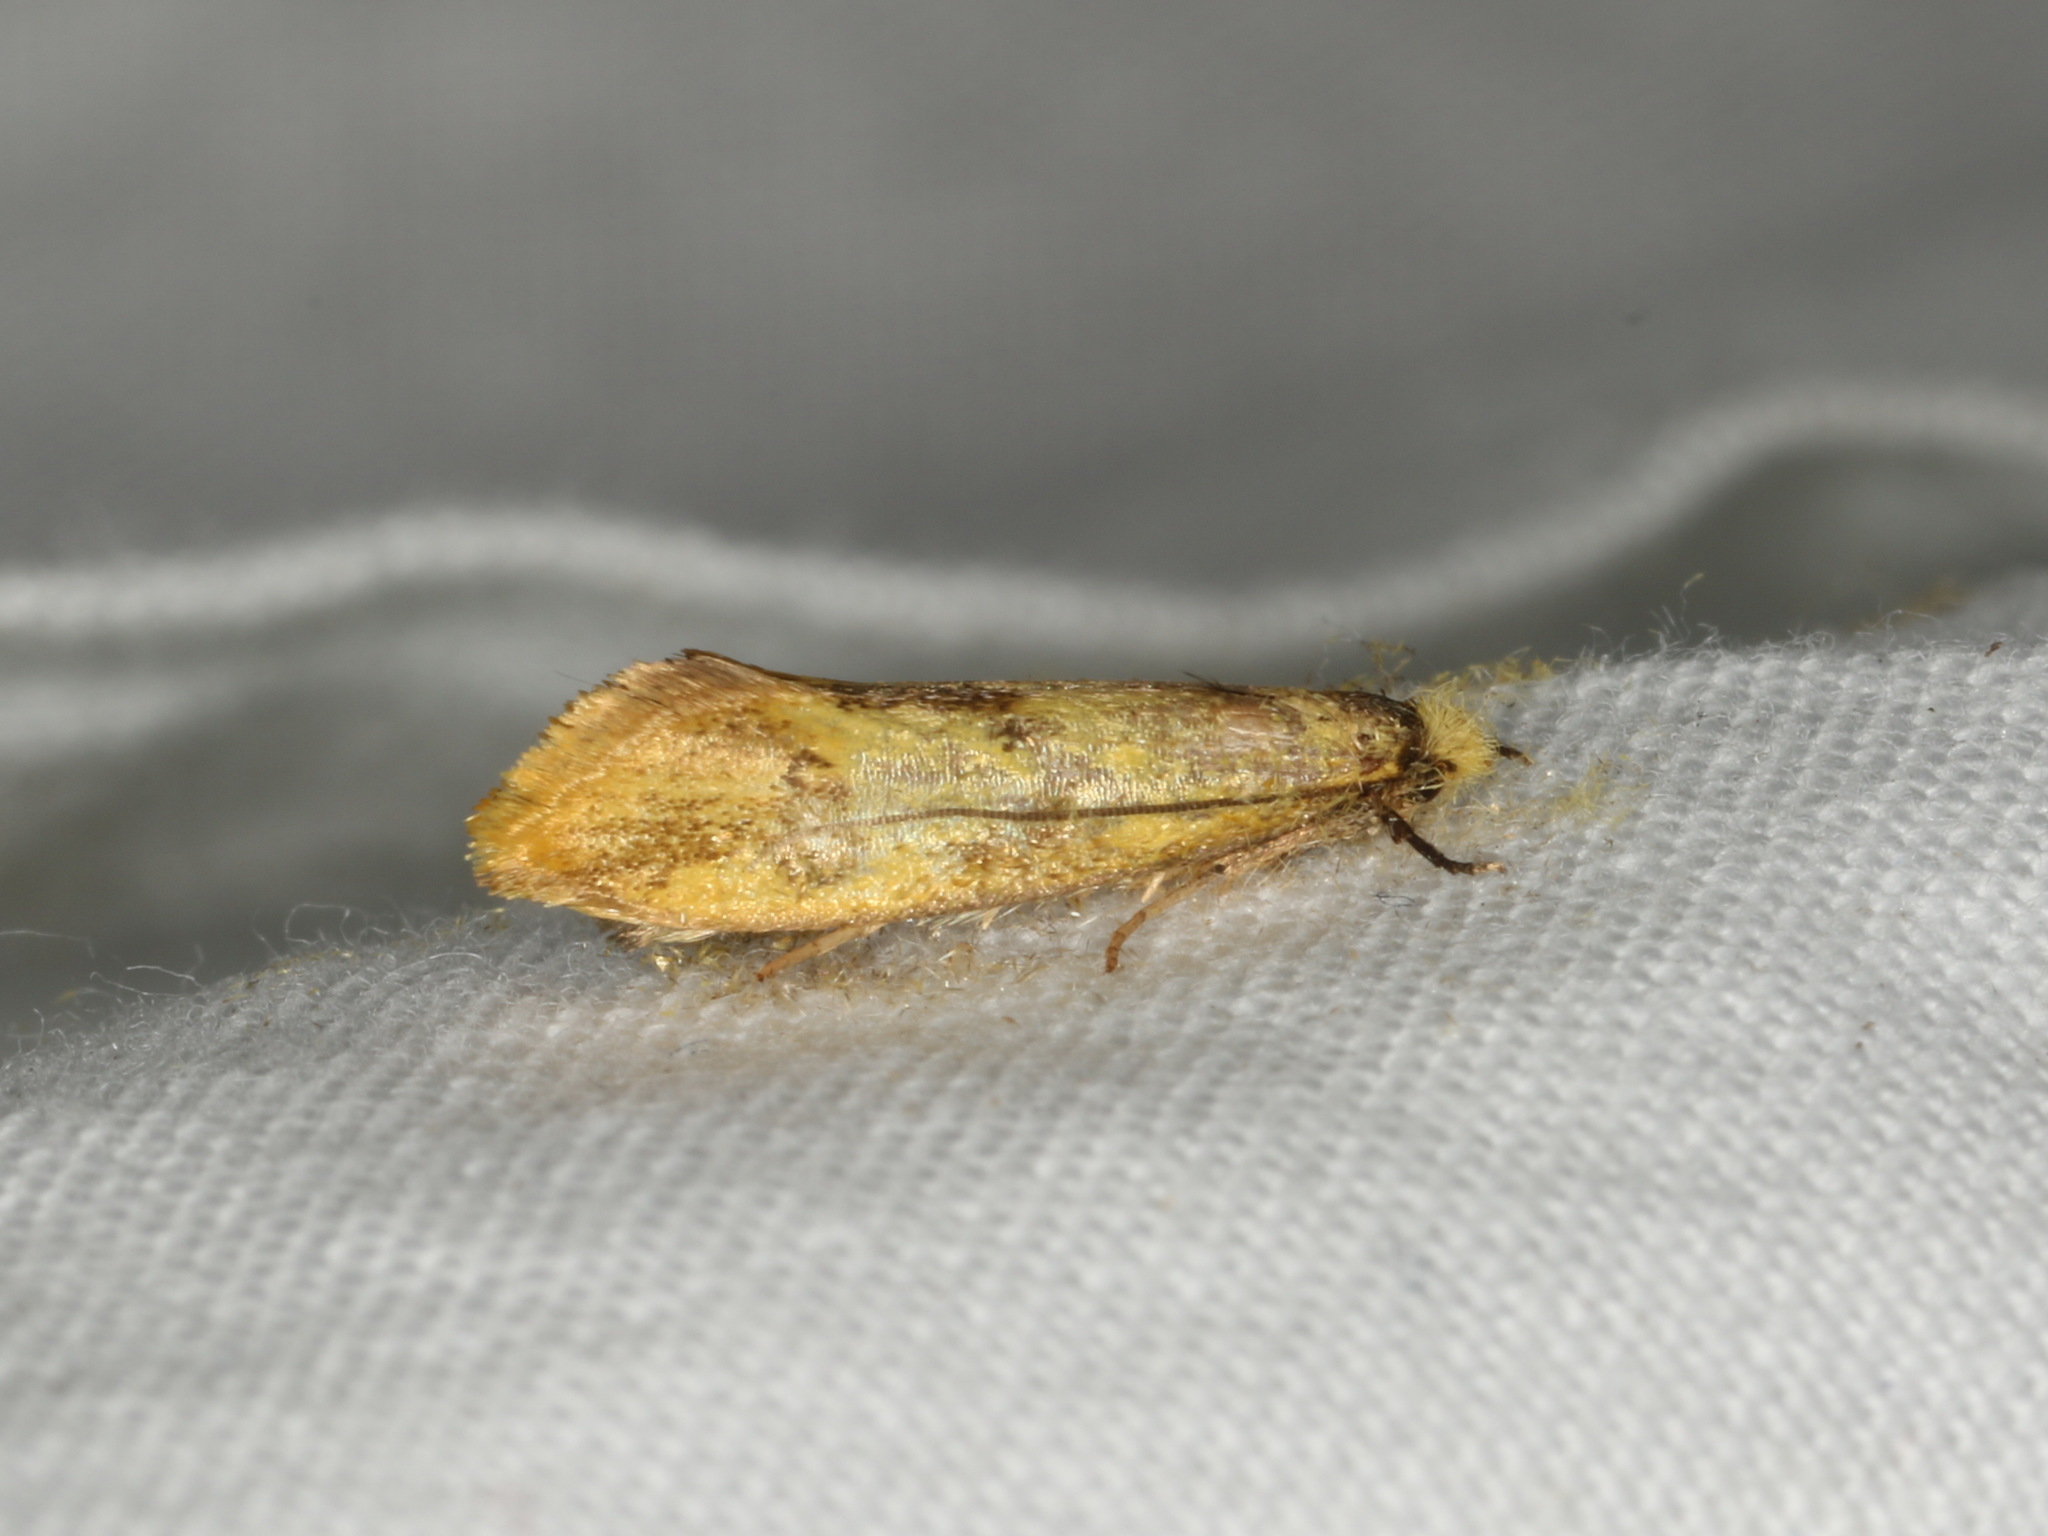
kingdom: Animalia
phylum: Arthropoda
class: Insecta
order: Lepidoptera
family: Tineidae
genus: Tinea
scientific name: Tinea sulfurata
